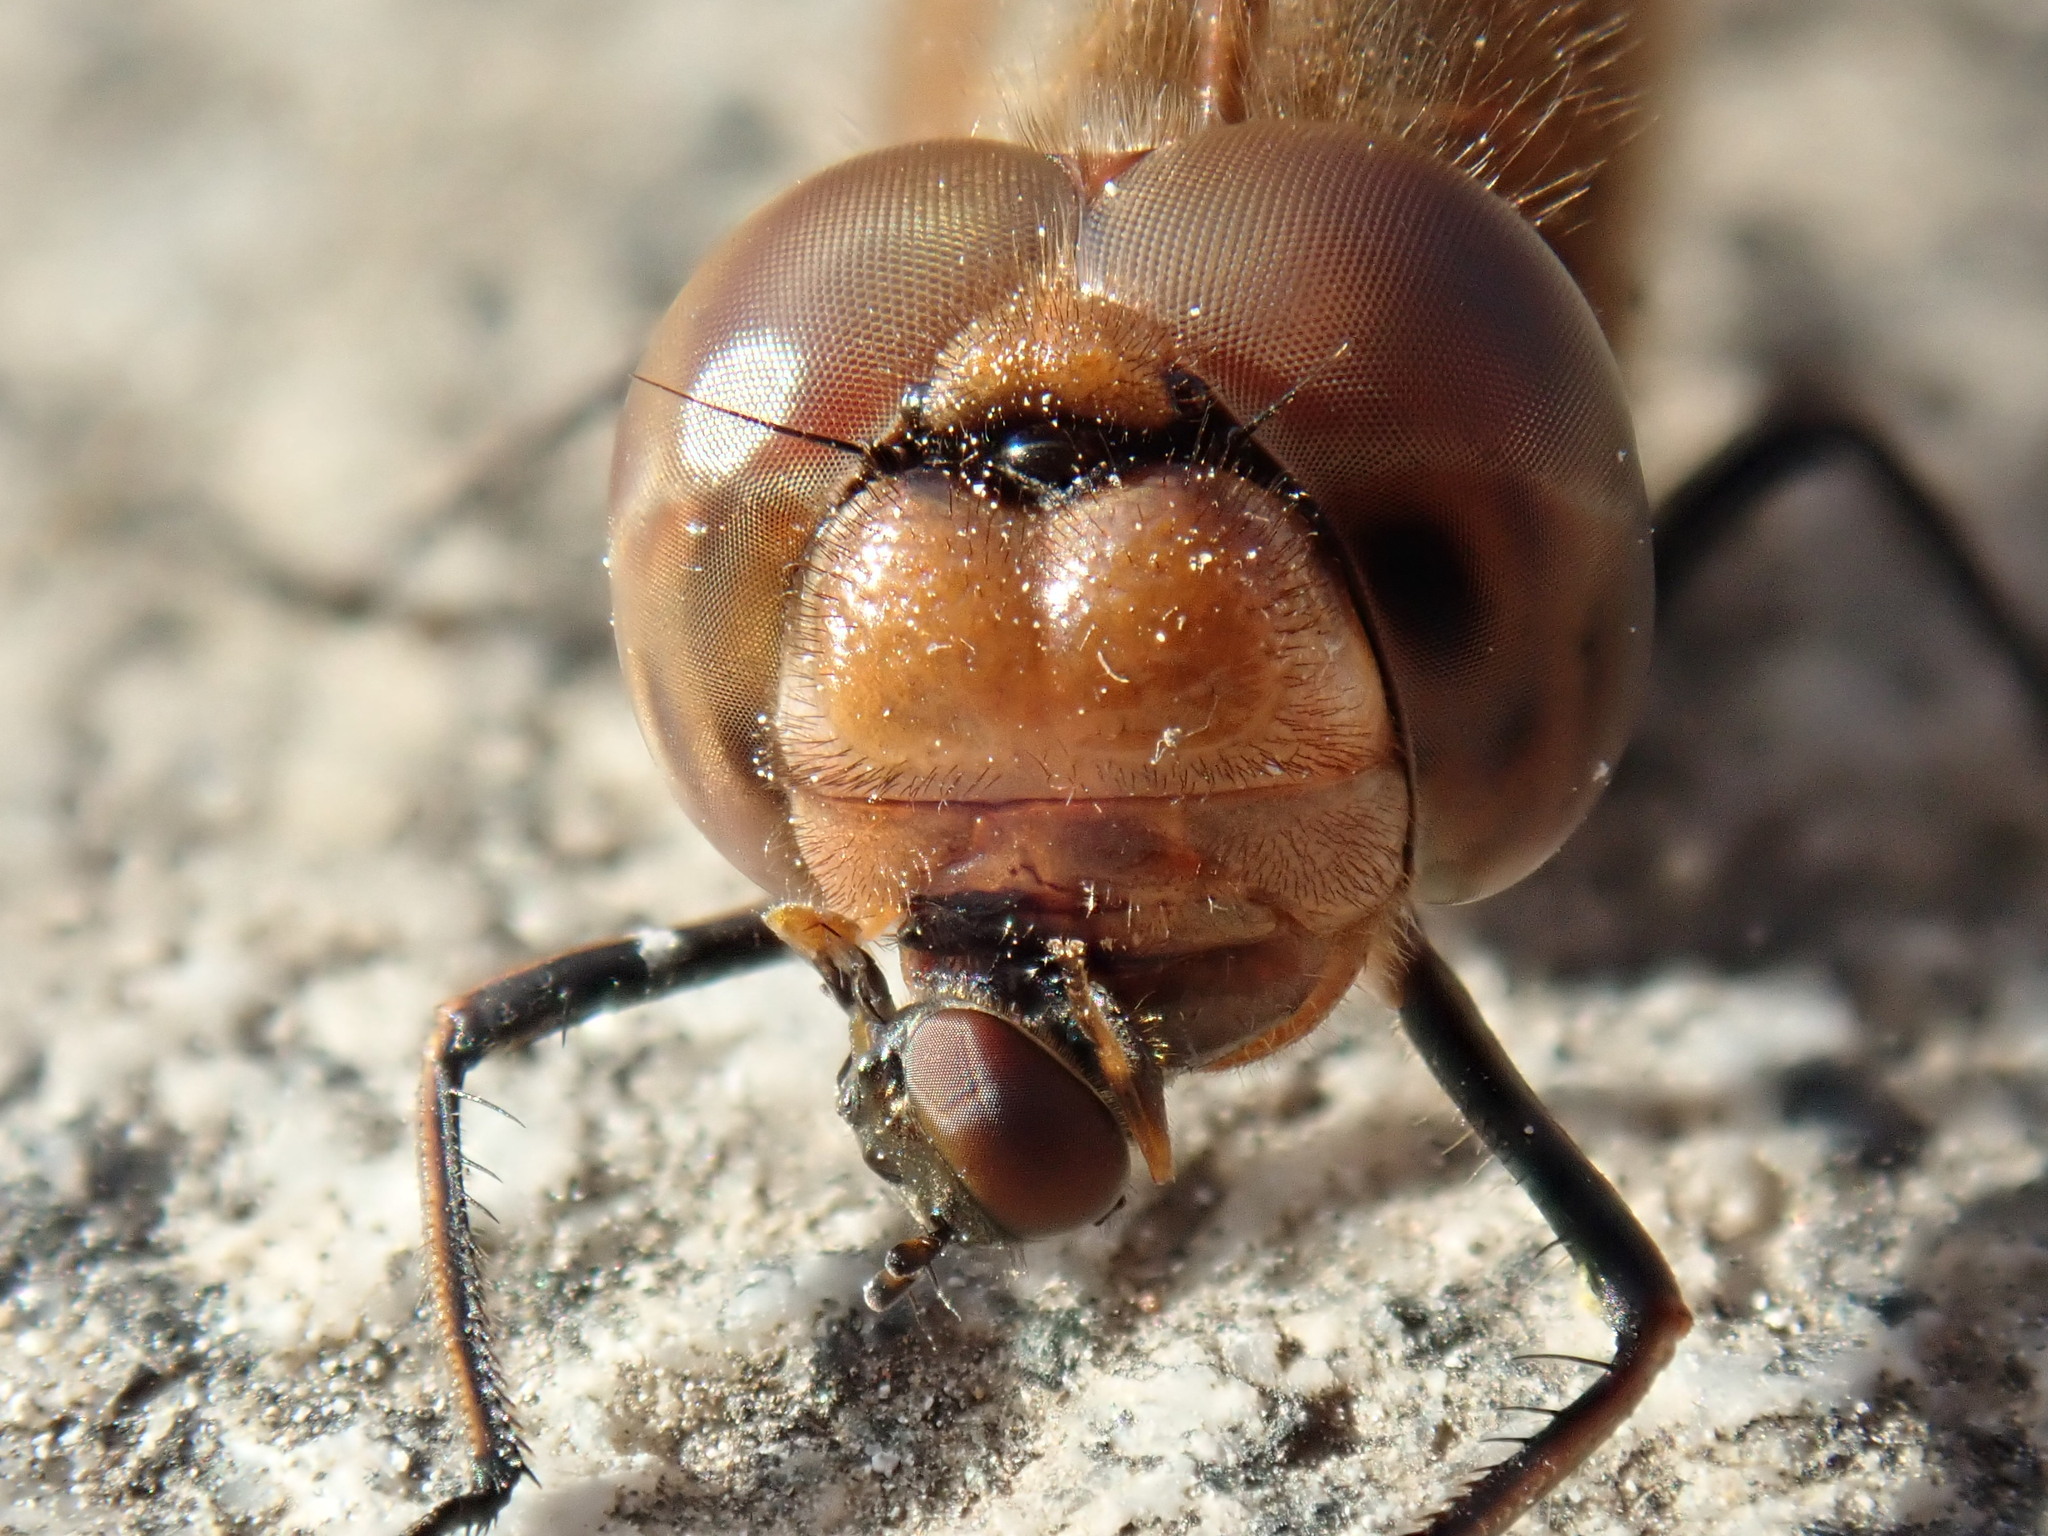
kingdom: Animalia
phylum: Arthropoda
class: Insecta
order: Odonata
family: Libellulidae
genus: Sympetrum
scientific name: Sympetrum striolatum
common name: Common darter
